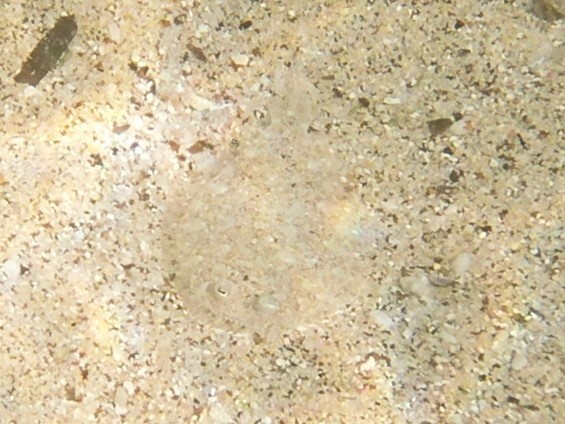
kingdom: Animalia
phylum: Chordata
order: Pleuronectiformes
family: Bothidae
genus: Bothus
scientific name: Bothus leopardinus
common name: Pacific leopard flounder
